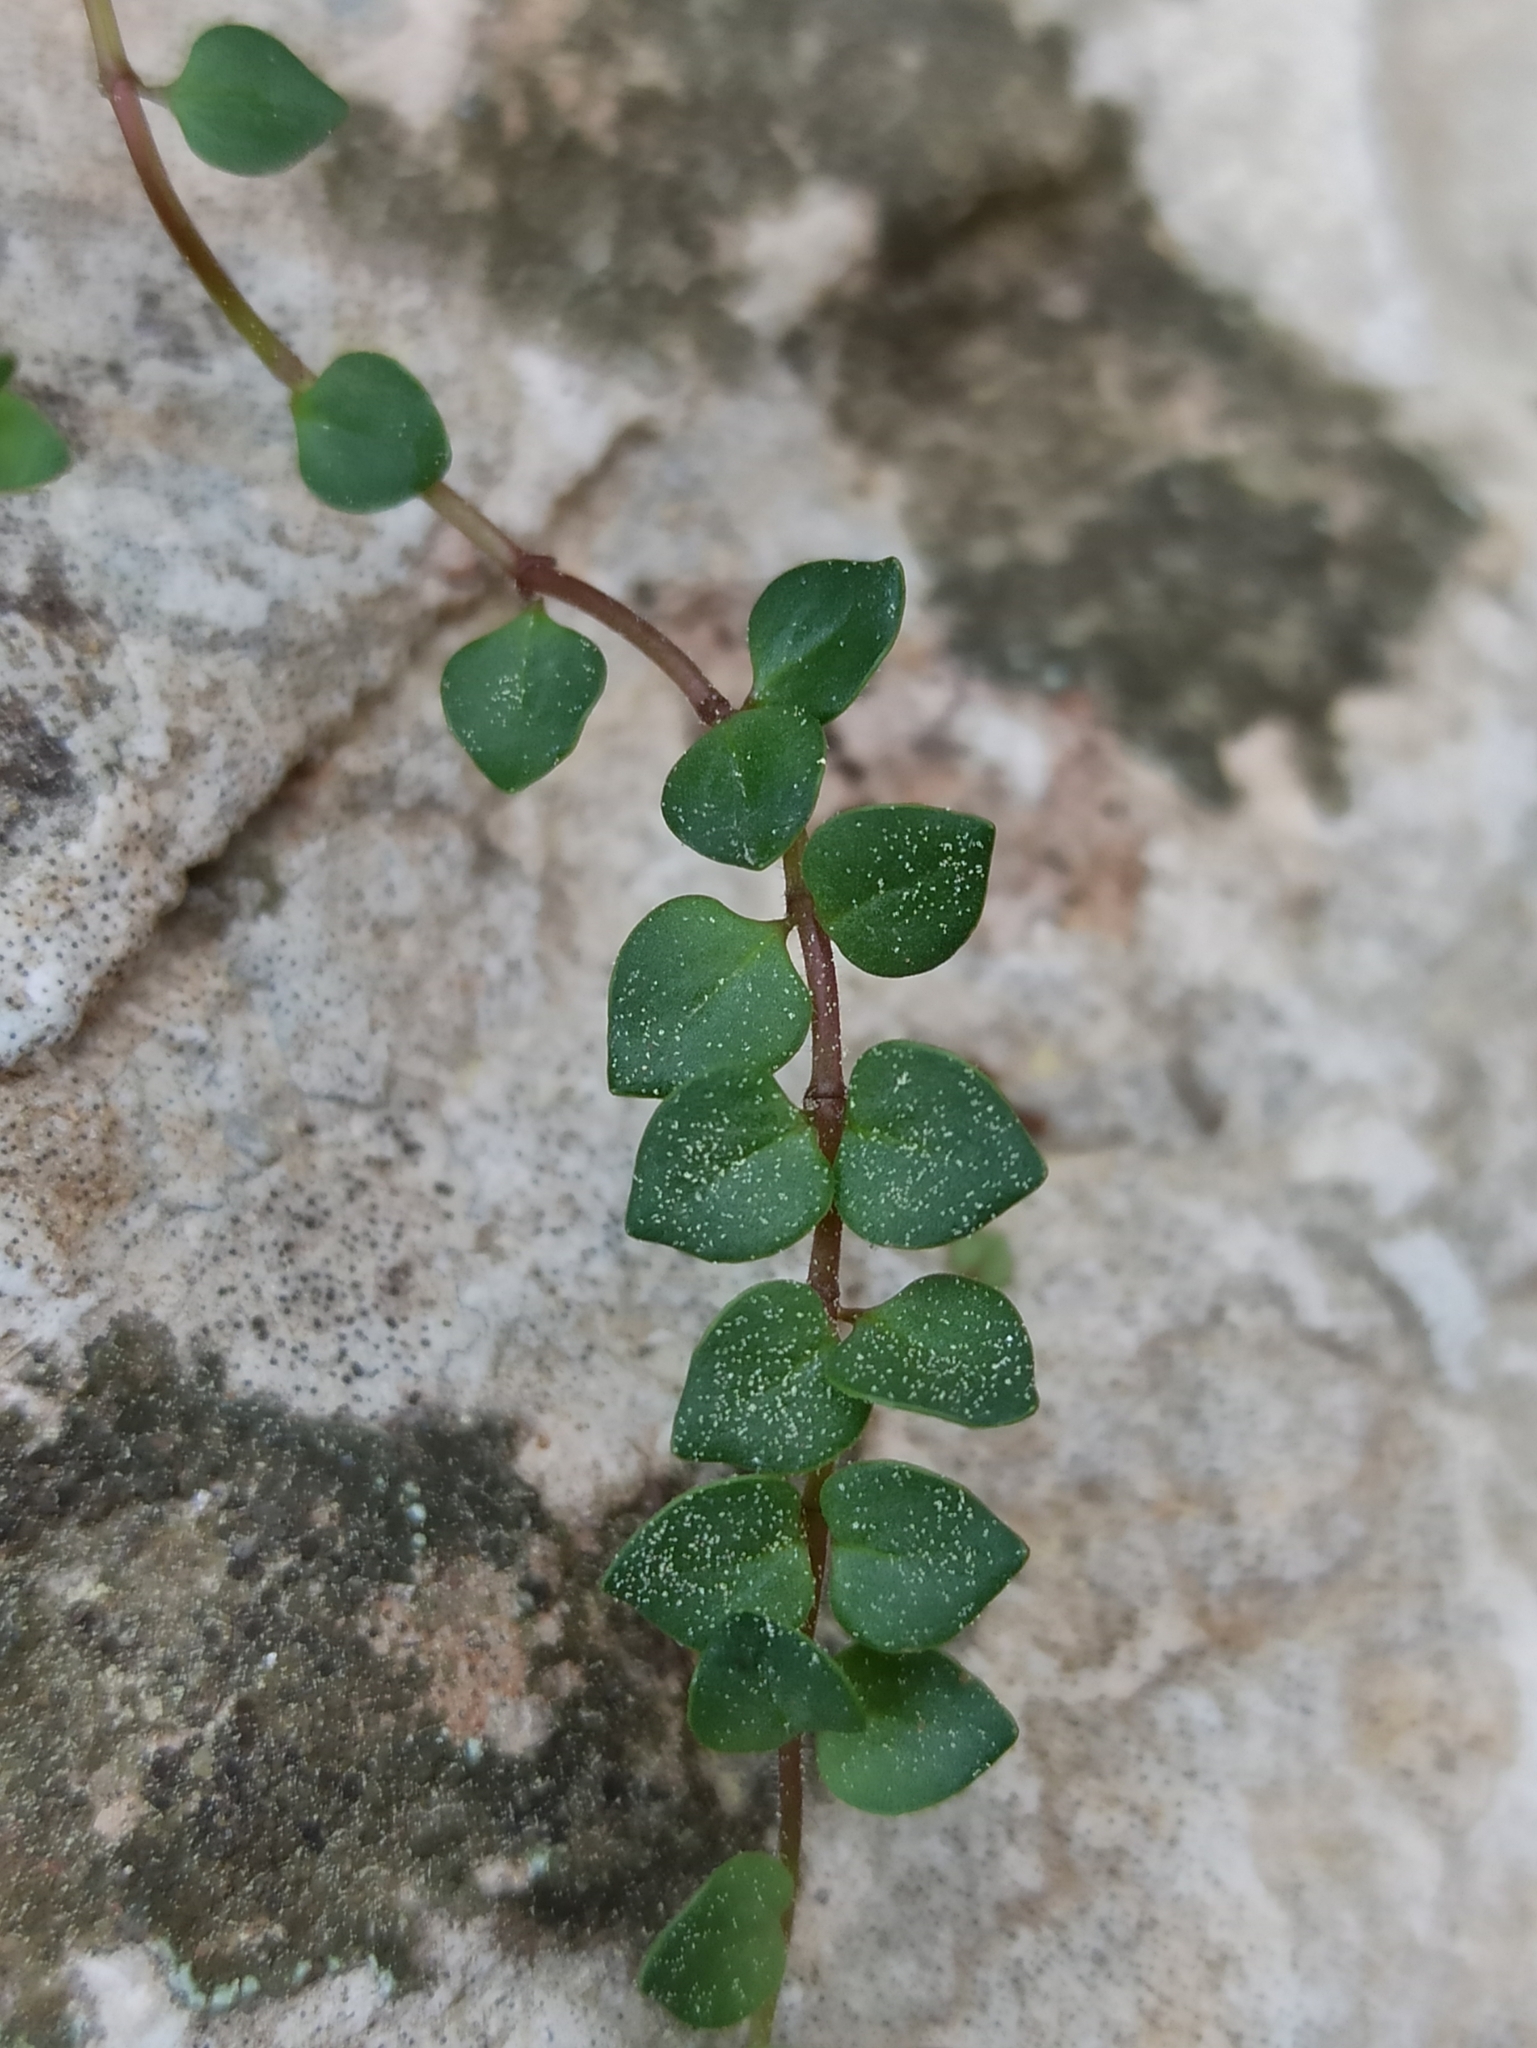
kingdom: Plantae
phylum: Tracheophyta
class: Magnoliopsida
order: Lamiales
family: Lamiaceae
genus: Micromeria
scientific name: Micromeria filiformis
